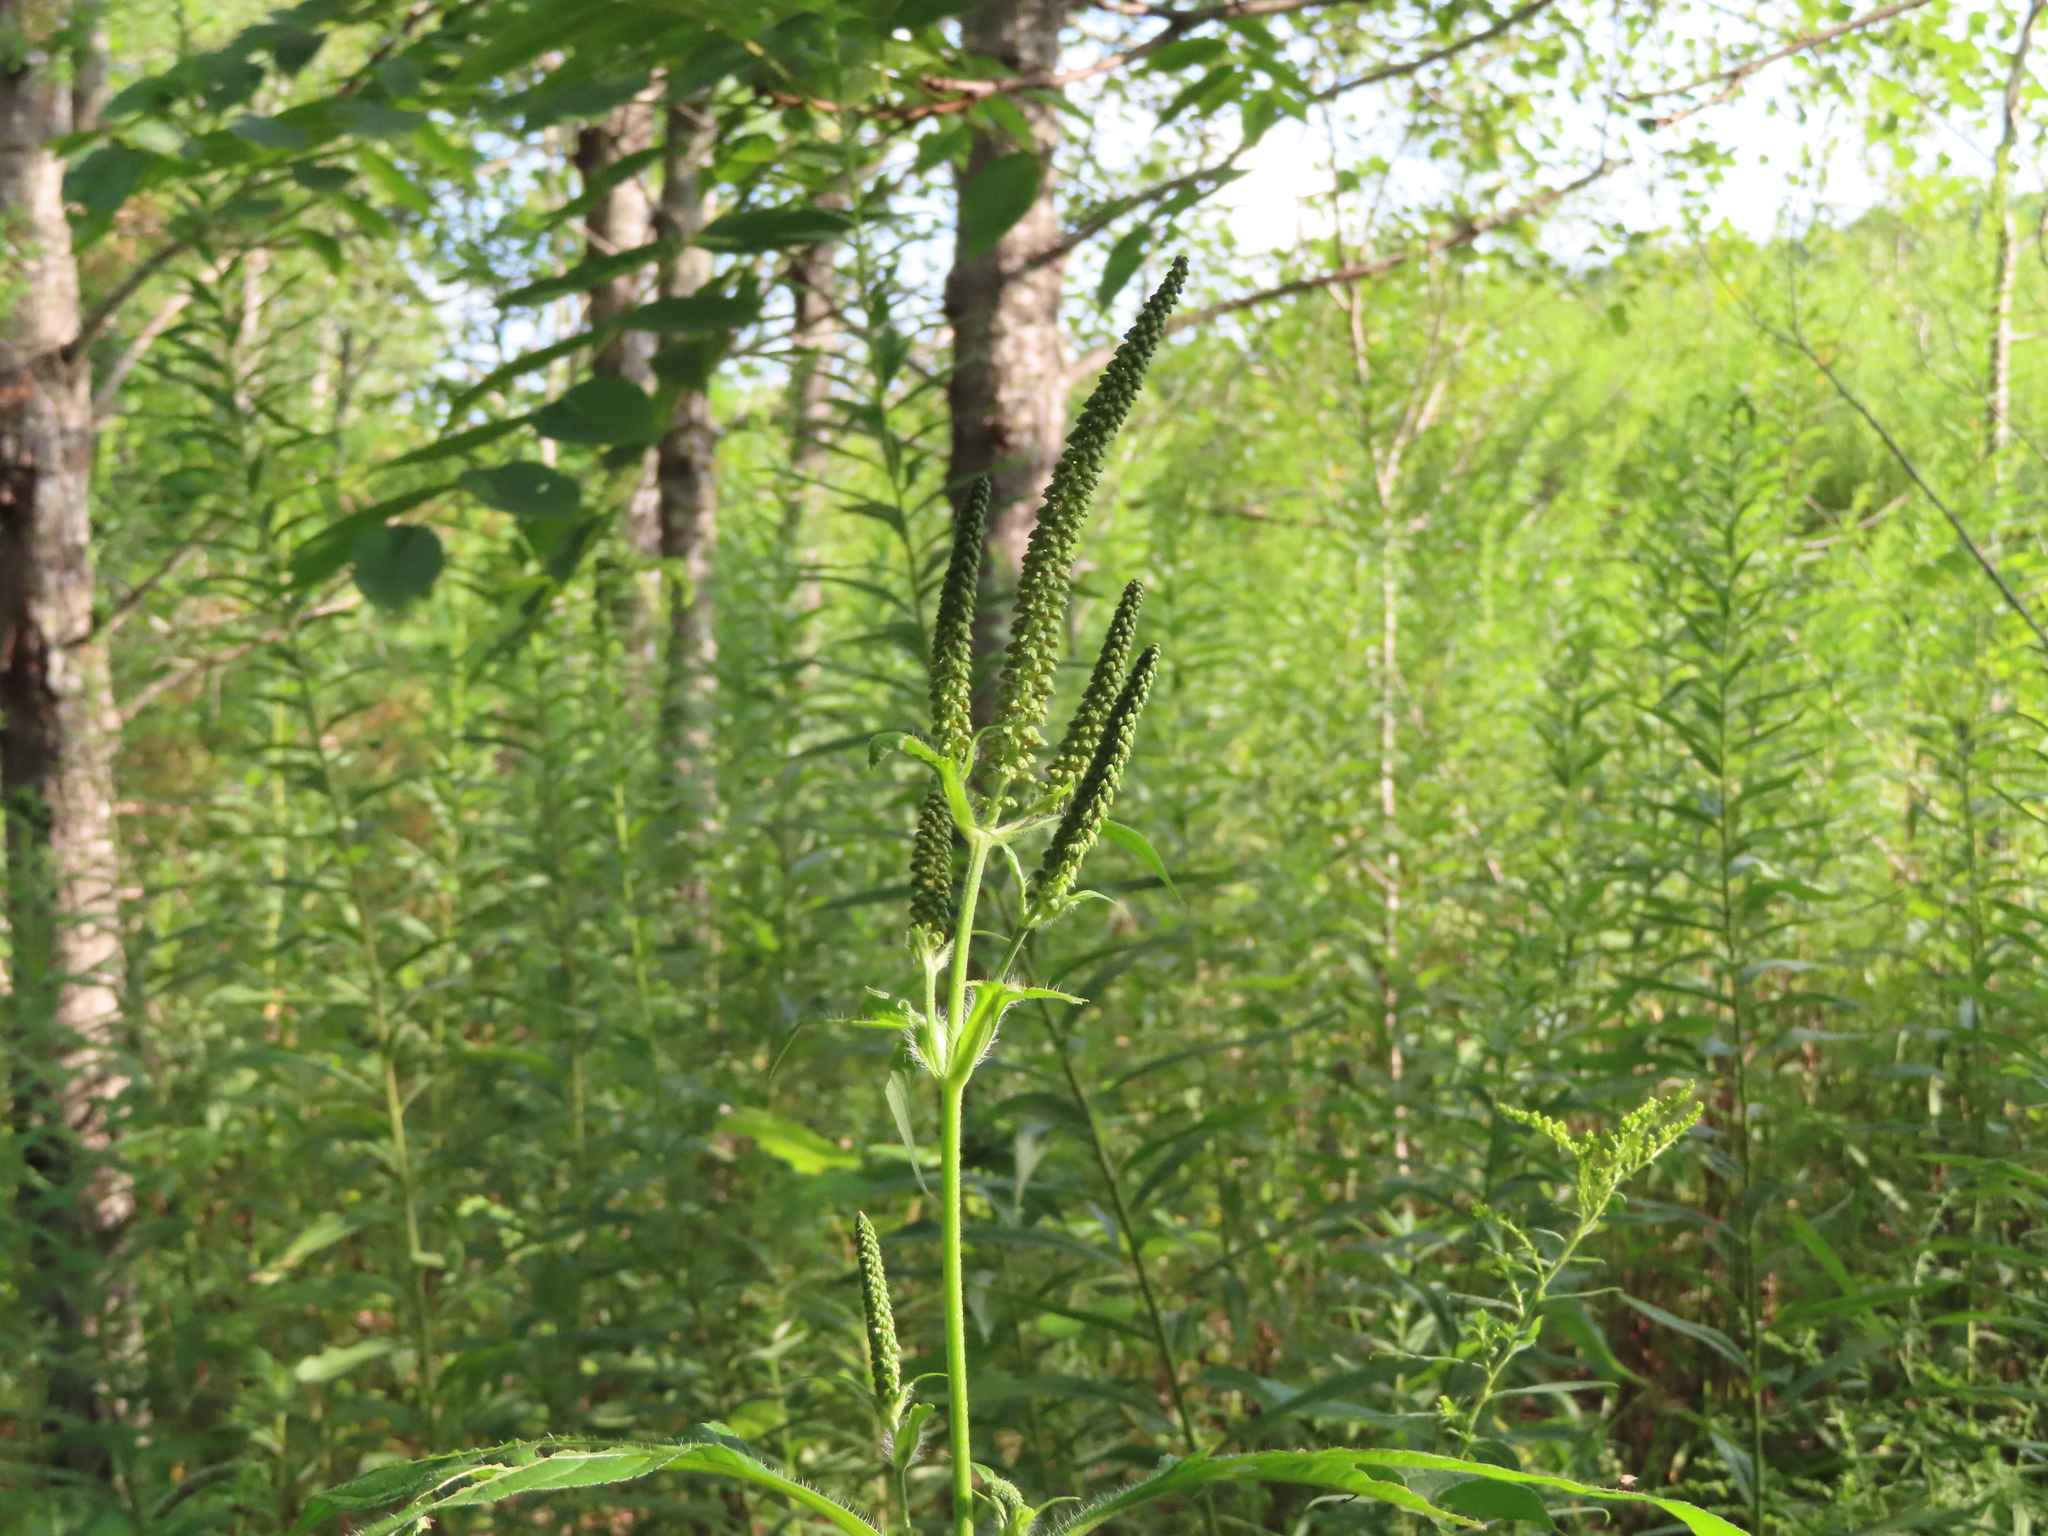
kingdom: Plantae
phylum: Tracheophyta
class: Magnoliopsida
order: Asterales
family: Asteraceae
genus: Ambrosia
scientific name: Ambrosia trifida
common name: Giant ragweed
